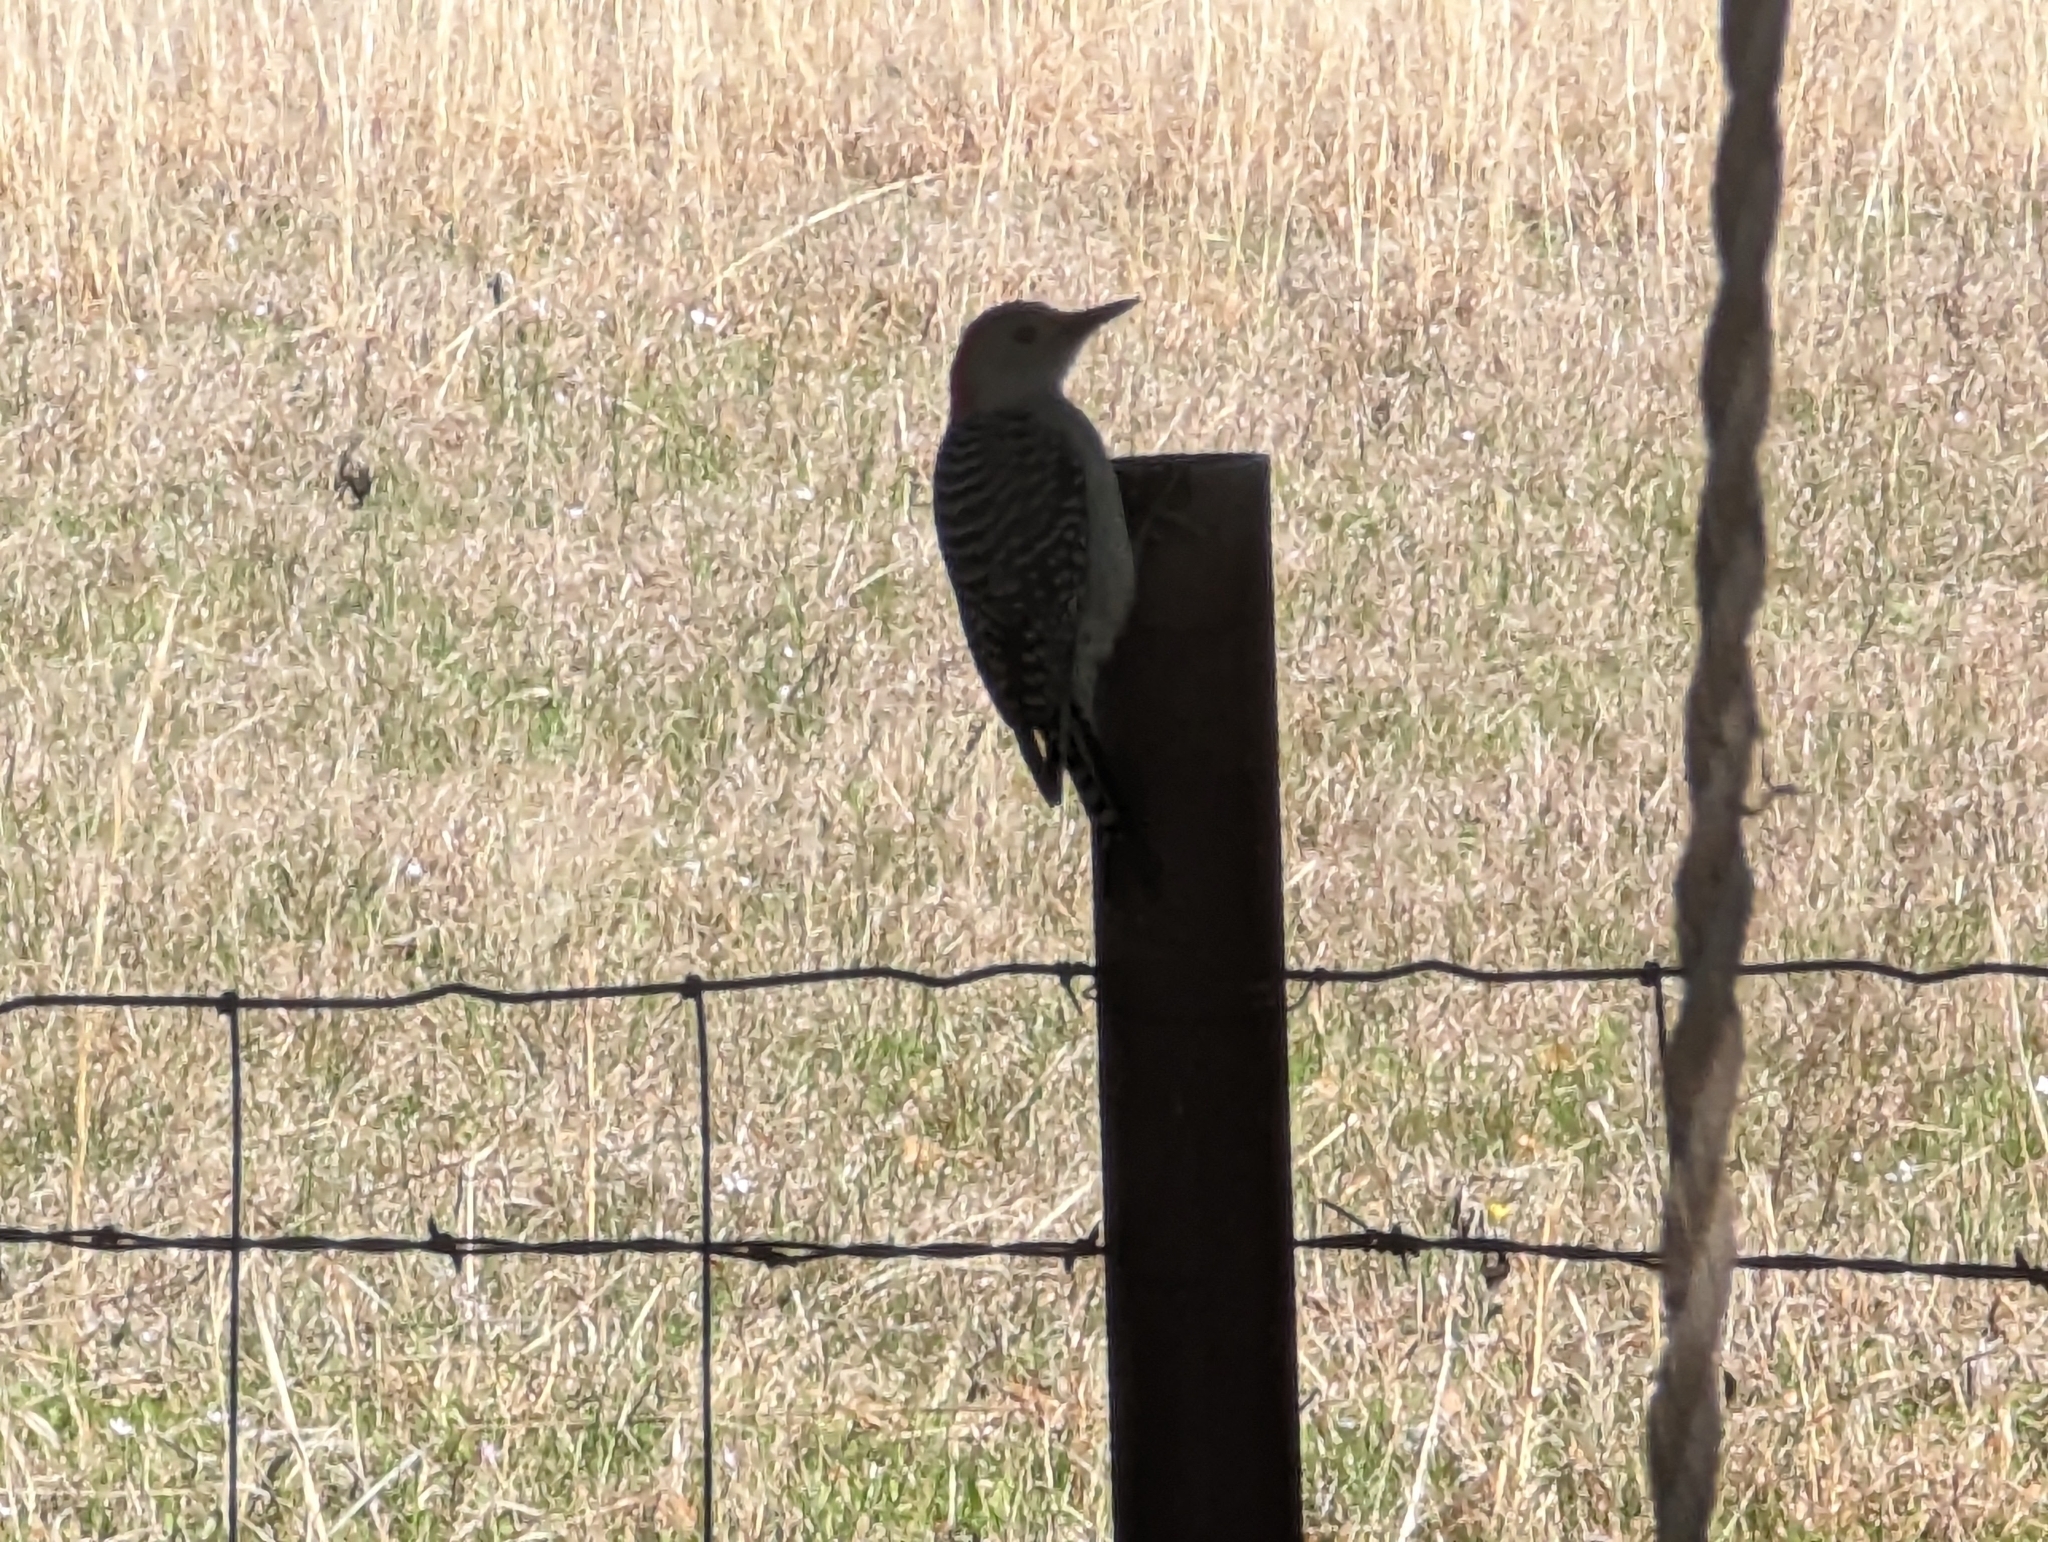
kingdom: Animalia
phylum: Chordata
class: Aves
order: Piciformes
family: Picidae
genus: Melanerpes
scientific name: Melanerpes carolinus
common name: Red-bellied woodpecker
